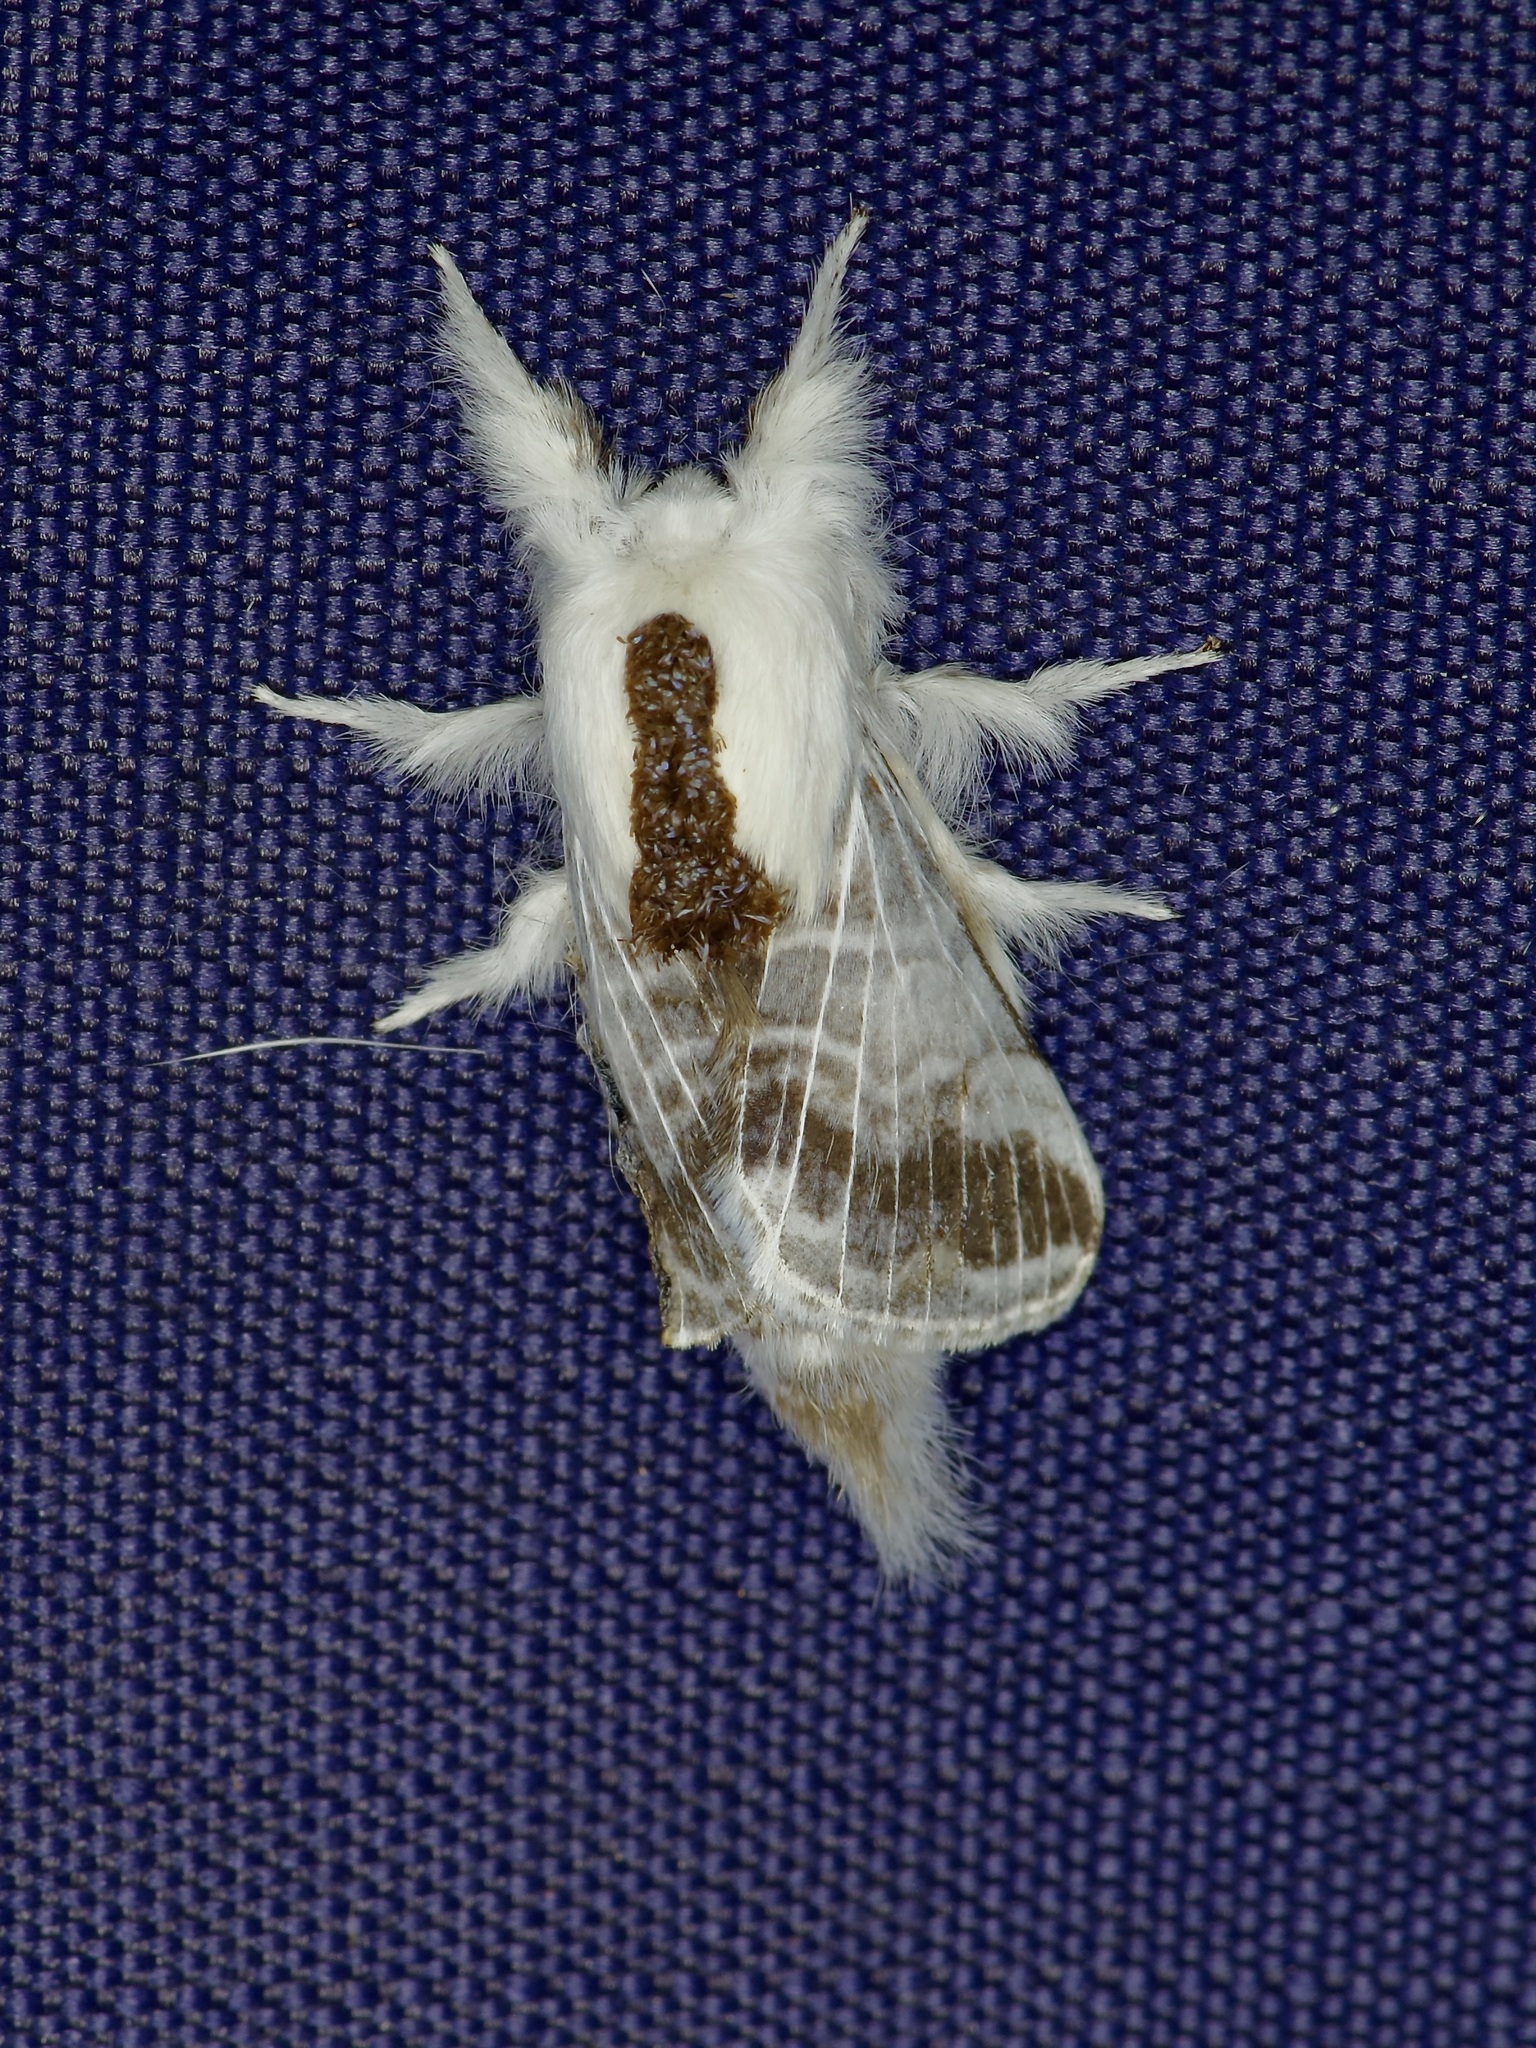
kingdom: Animalia
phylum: Arthropoda
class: Insecta
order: Lepidoptera
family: Lasiocampidae
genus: Tolype
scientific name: Tolype velleda
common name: Large tolype moth
